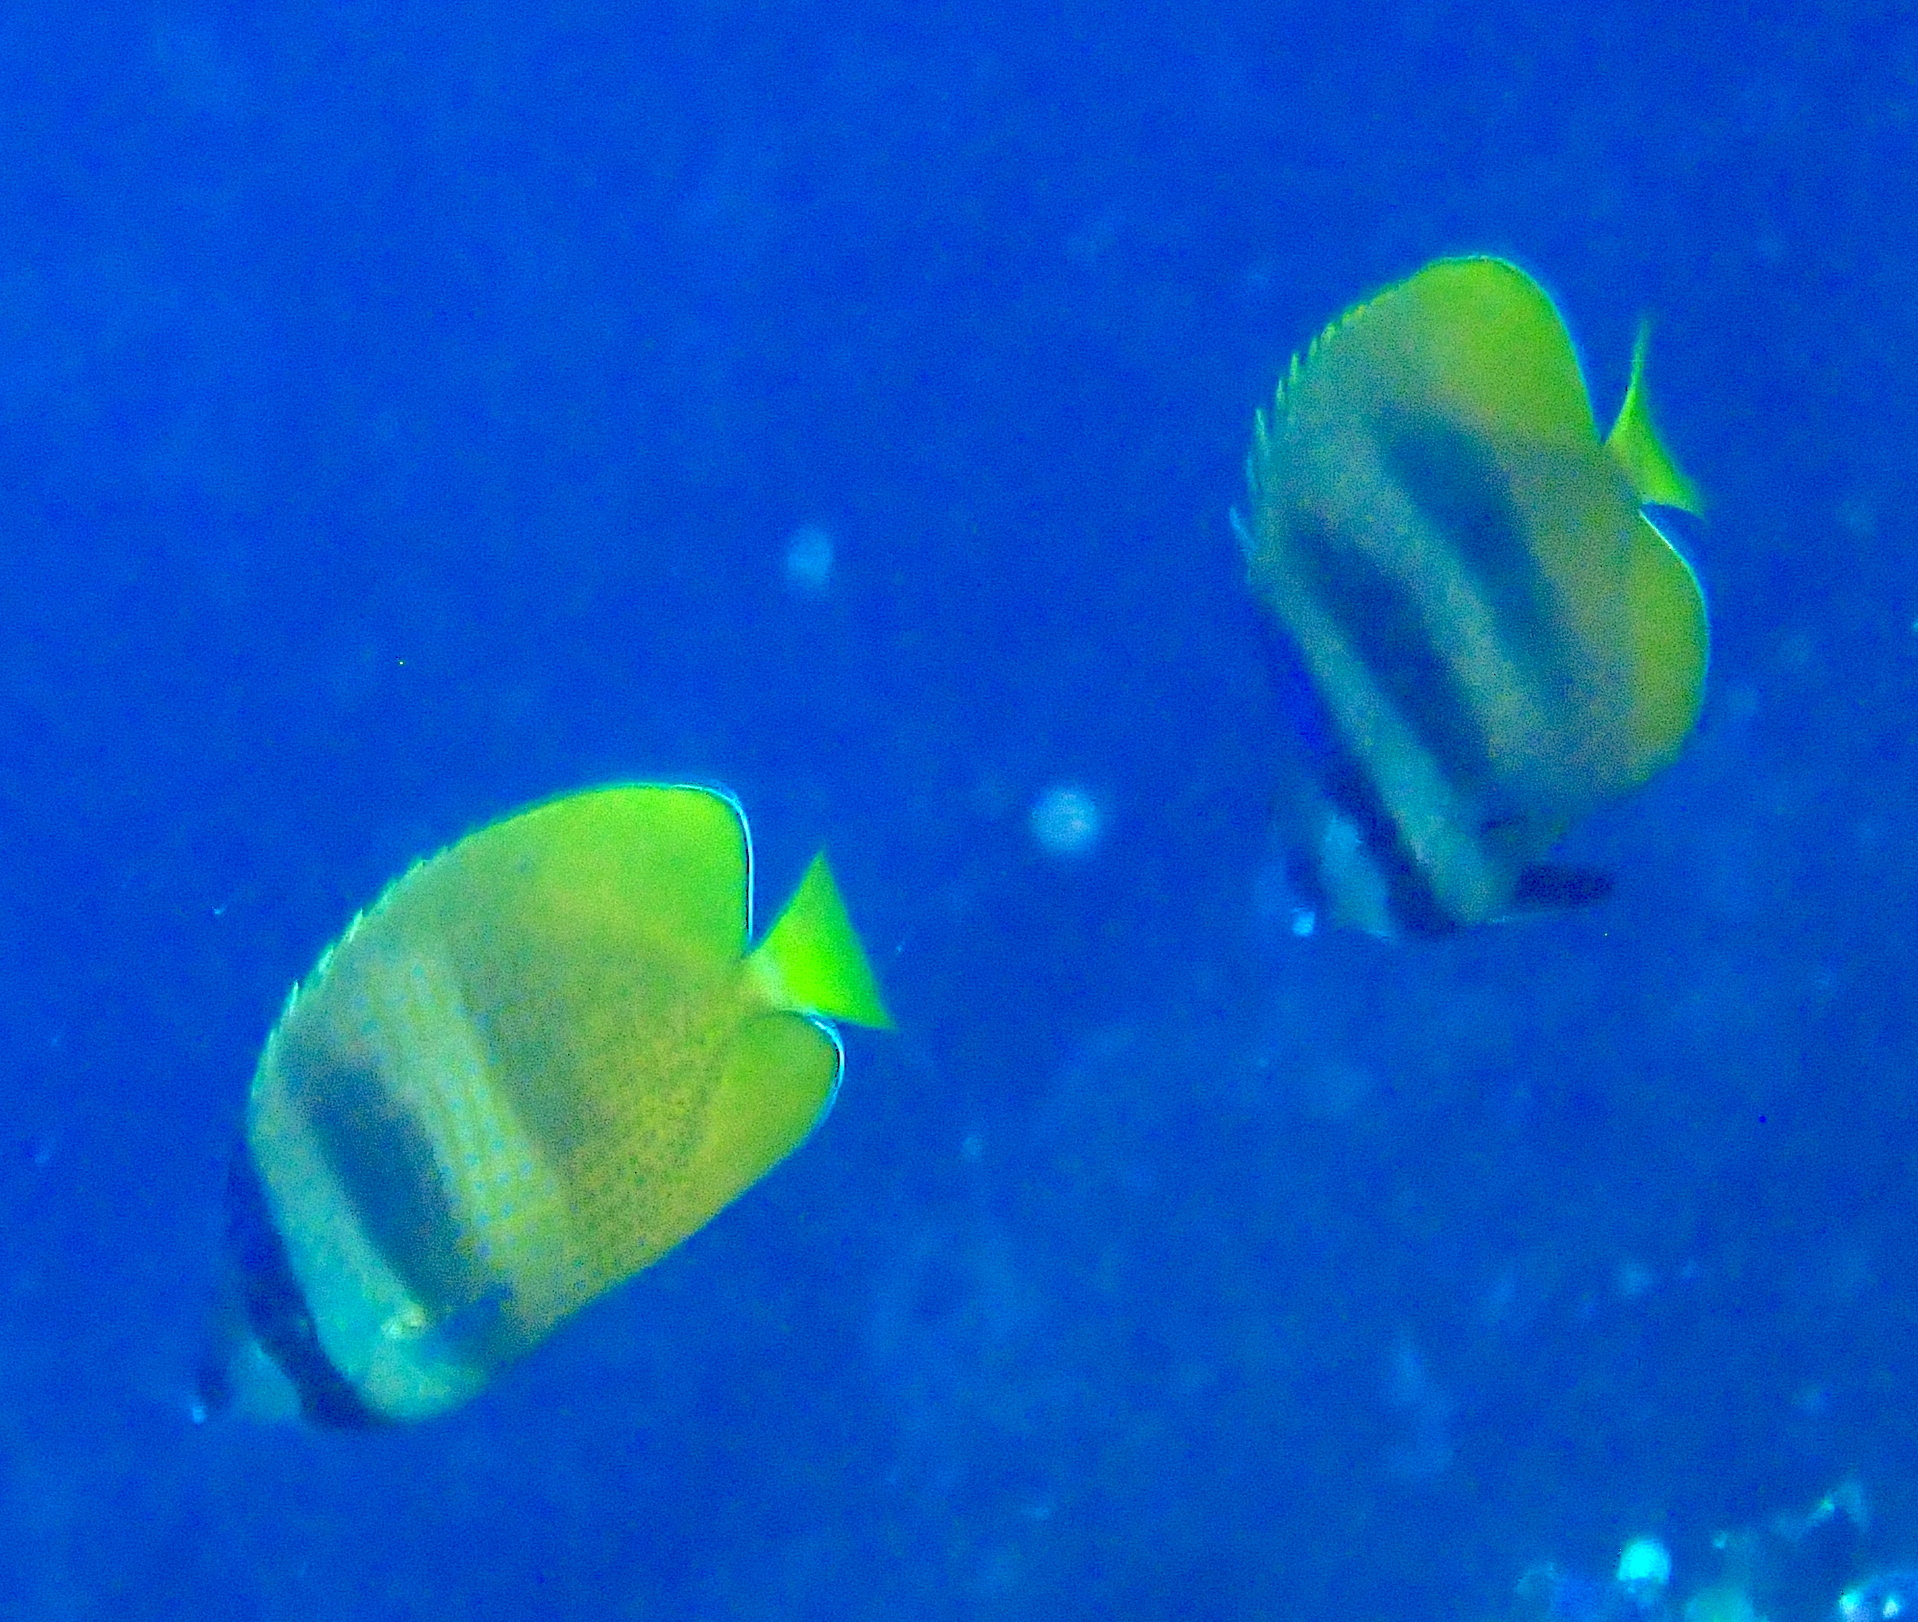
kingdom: Animalia
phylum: Chordata
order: Perciformes
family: Chaetodontidae
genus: Chaetodon
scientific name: Chaetodon kleinii
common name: Klein's butterflyfish
